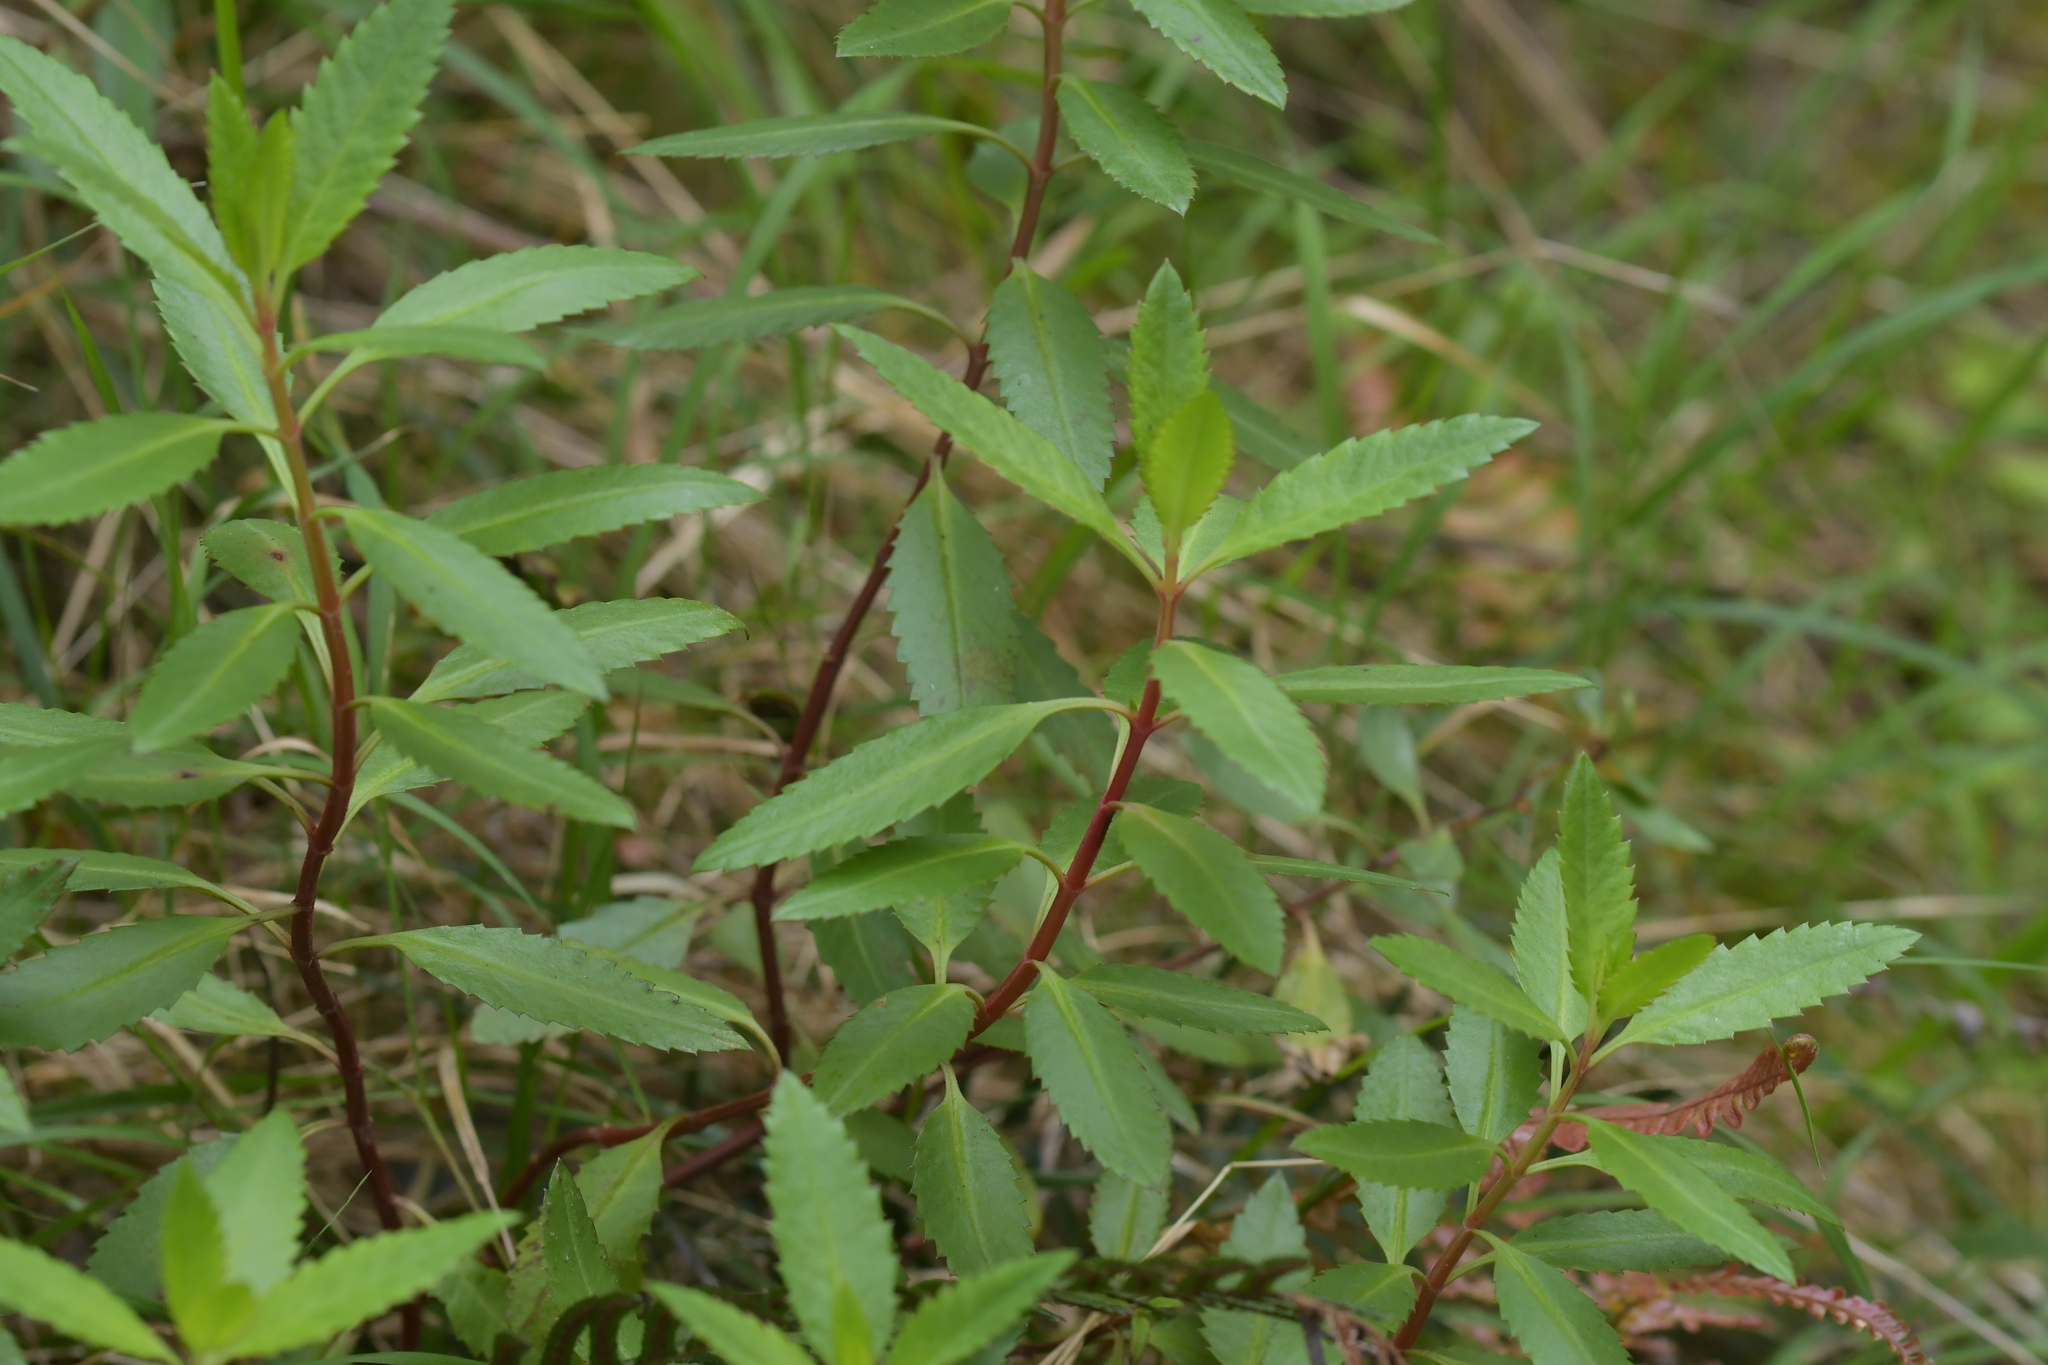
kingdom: Plantae
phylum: Tracheophyta
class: Magnoliopsida
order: Saxifragales
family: Haloragaceae
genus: Haloragis
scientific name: Haloragis erecta
